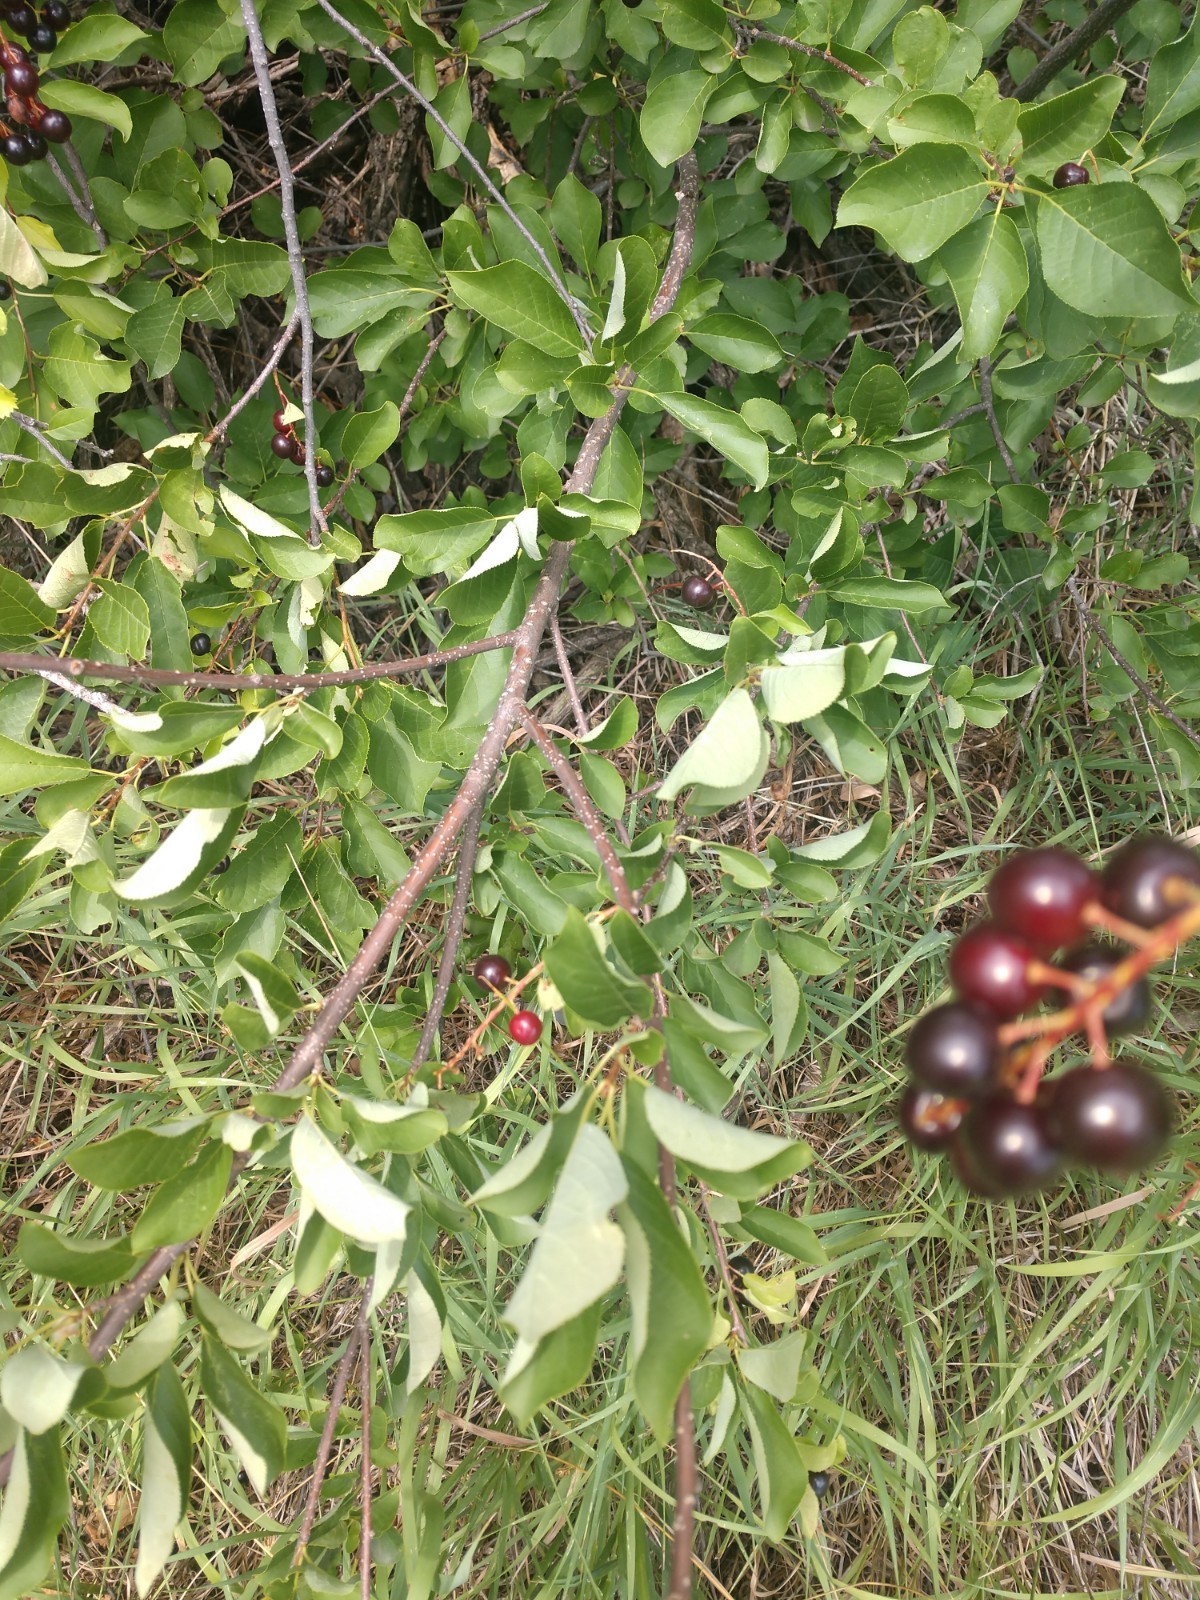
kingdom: Plantae
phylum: Tracheophyta
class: Magnoliopsida
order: Rosales
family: Rosaceae
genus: Prunus
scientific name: Prunus virginiana
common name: Chokecherry
